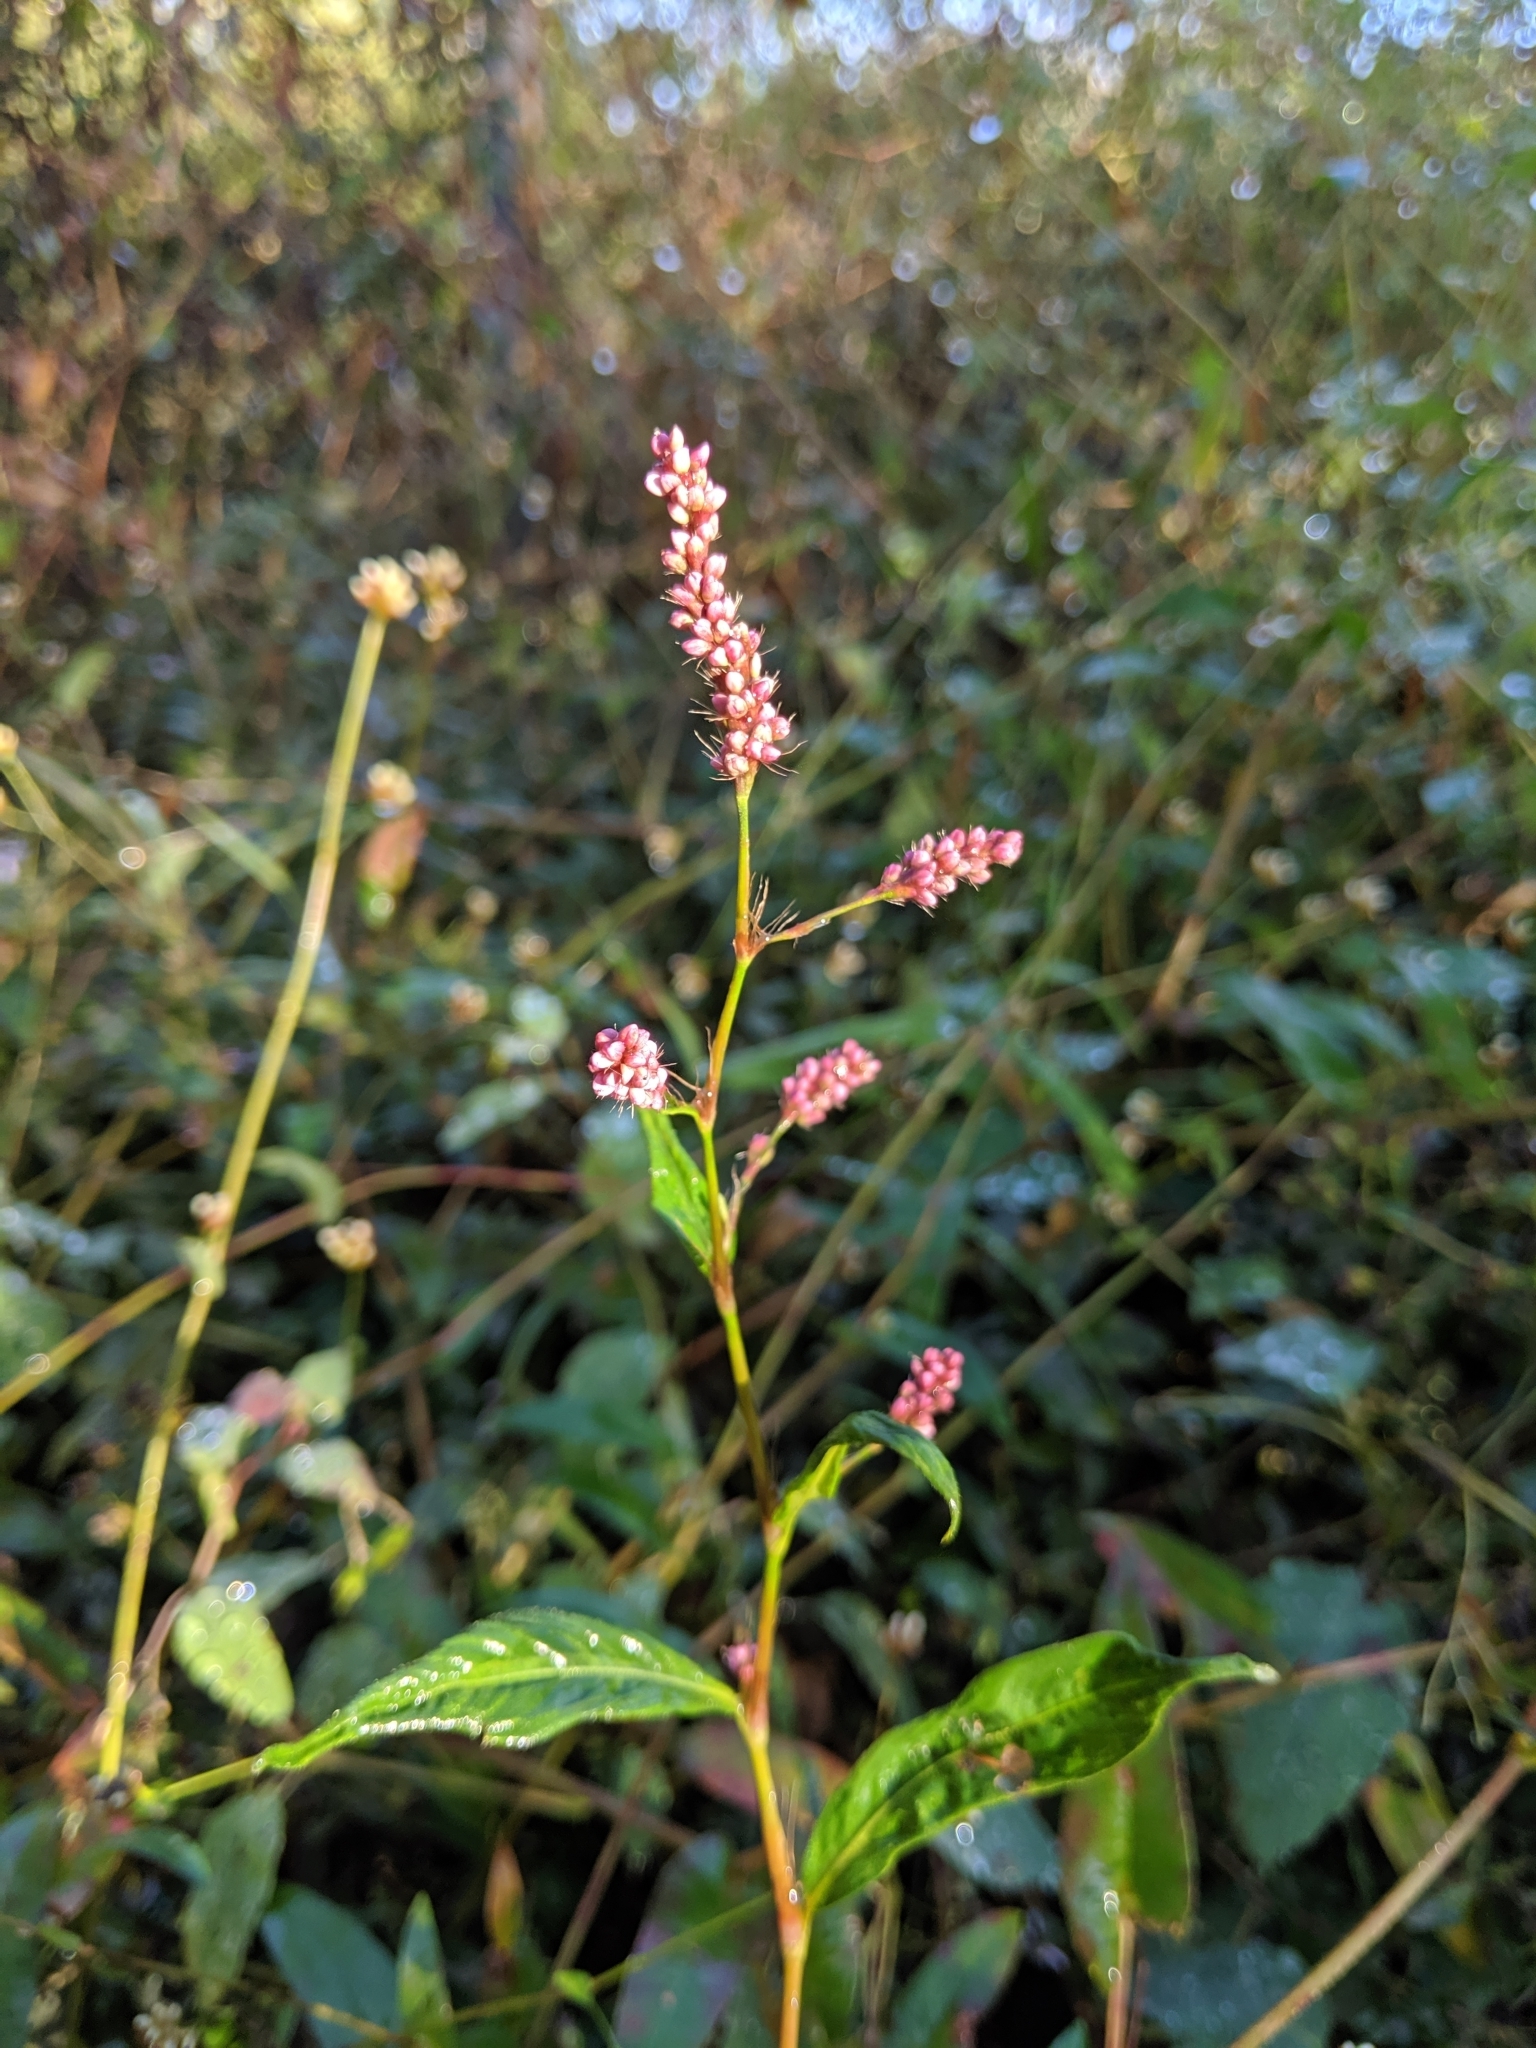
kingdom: Plantae
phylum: Tracheophyta
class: Magnoliopsida
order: Caryophyllales
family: Polygonaceae
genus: Persicaria
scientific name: Persicaria longiseta
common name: Bristly lady's-thumb
